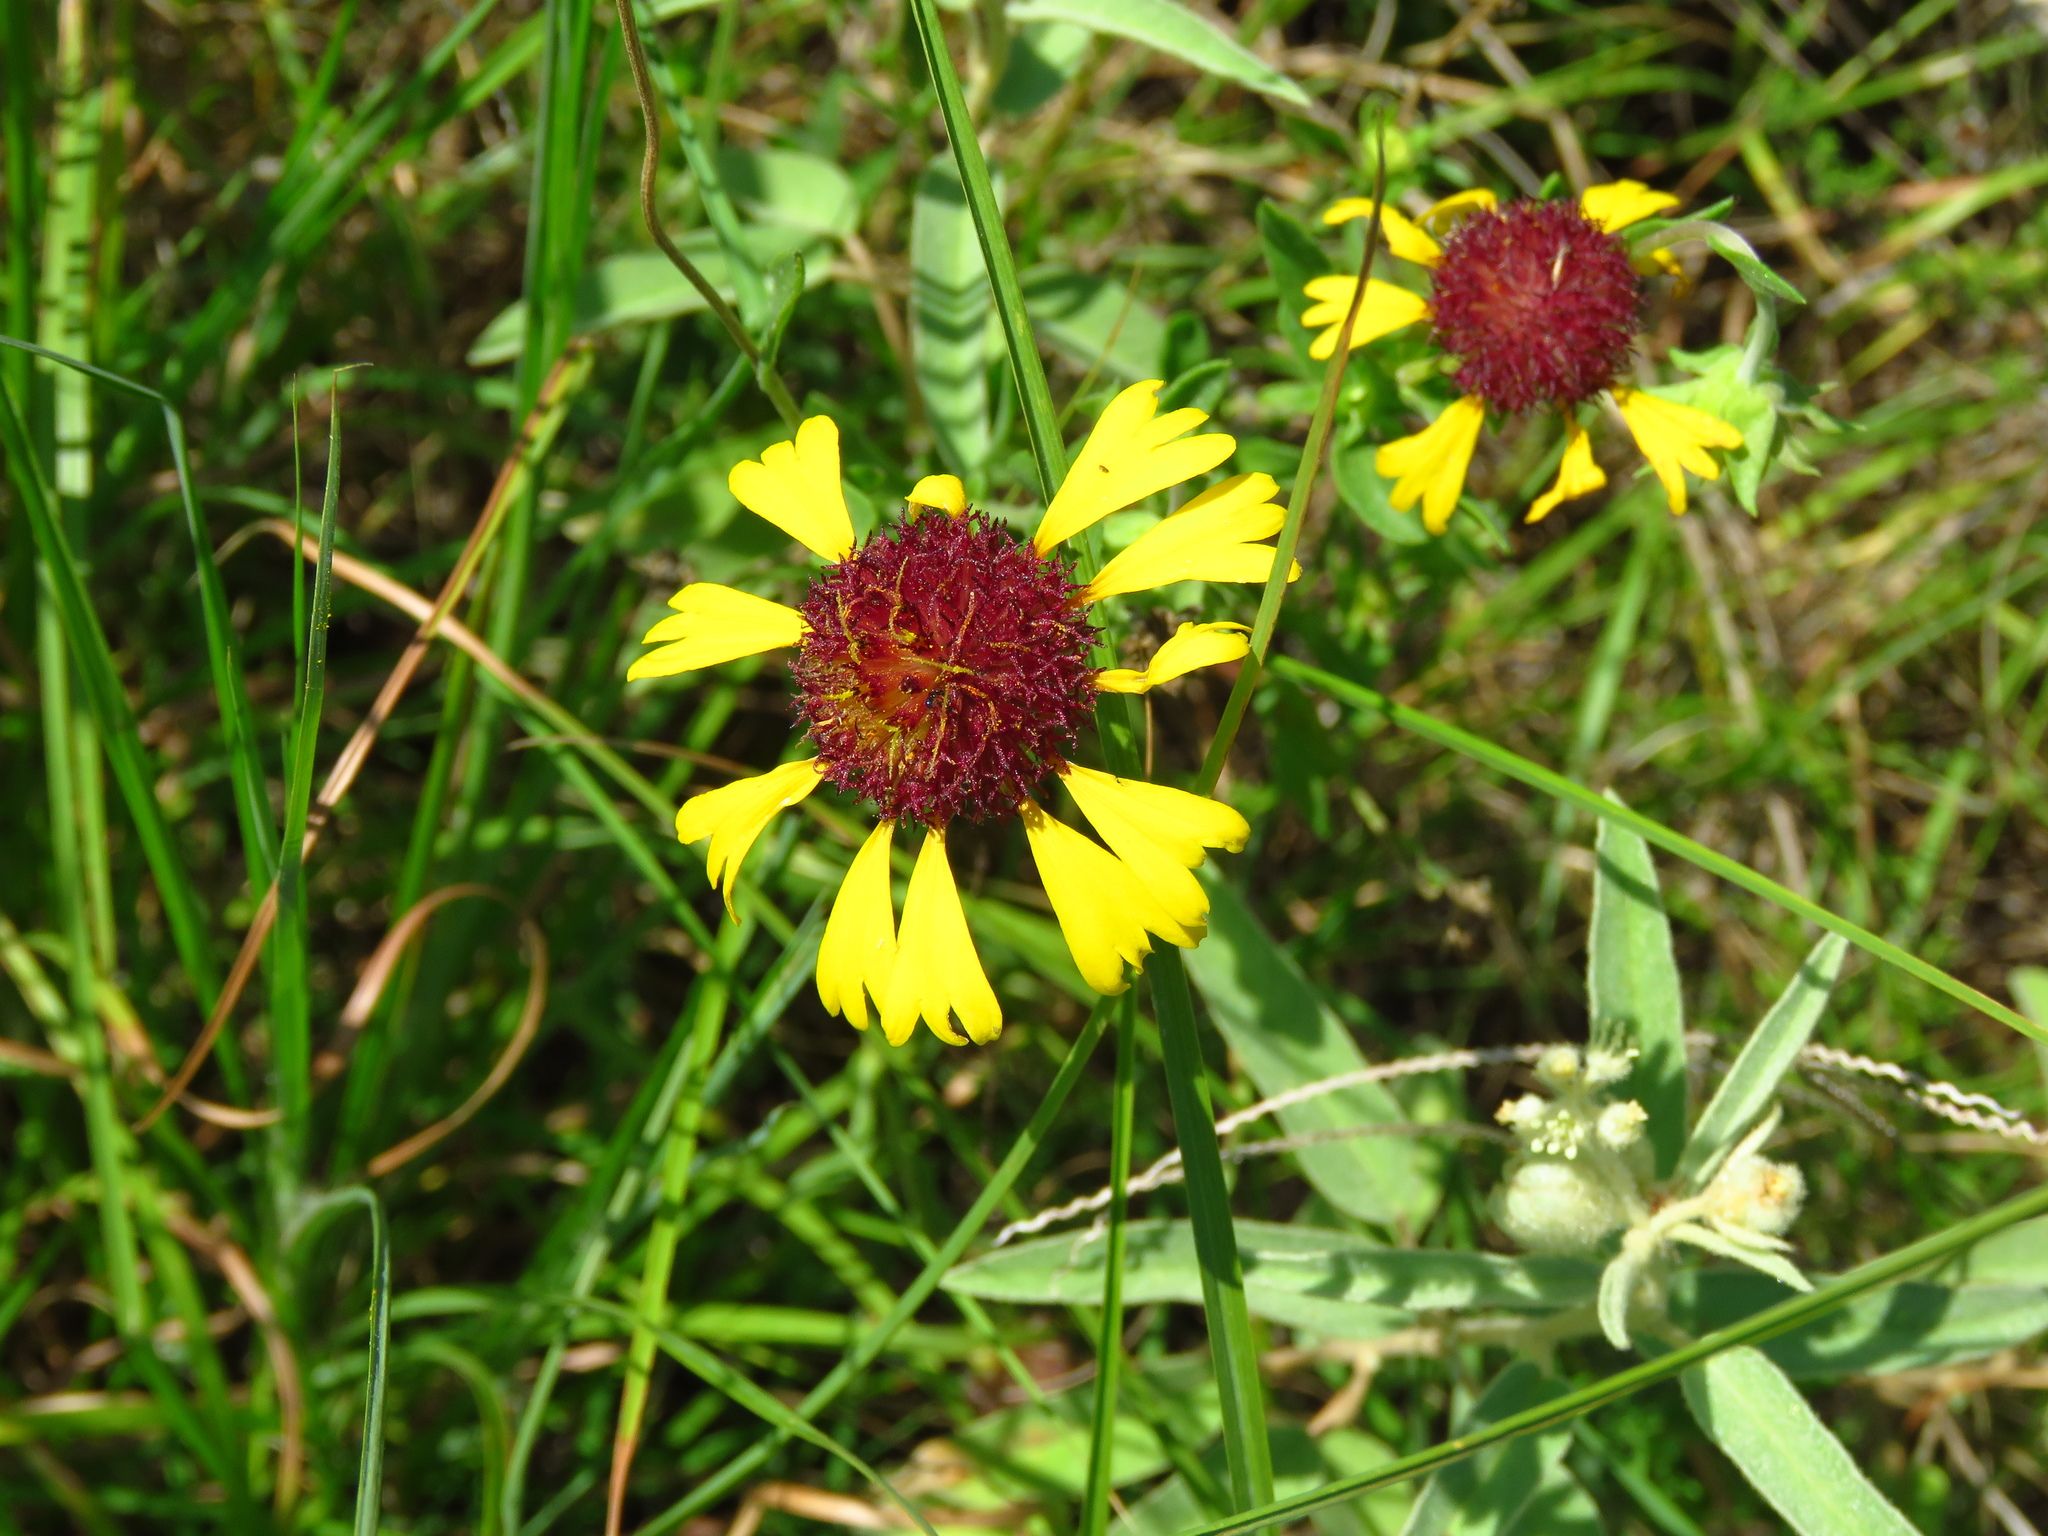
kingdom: Plantae
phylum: Tracheophyta
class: Magnoliopsida
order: Asterales
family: Asteraceae
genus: Gaillardia
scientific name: Gaillardia aestivalis
